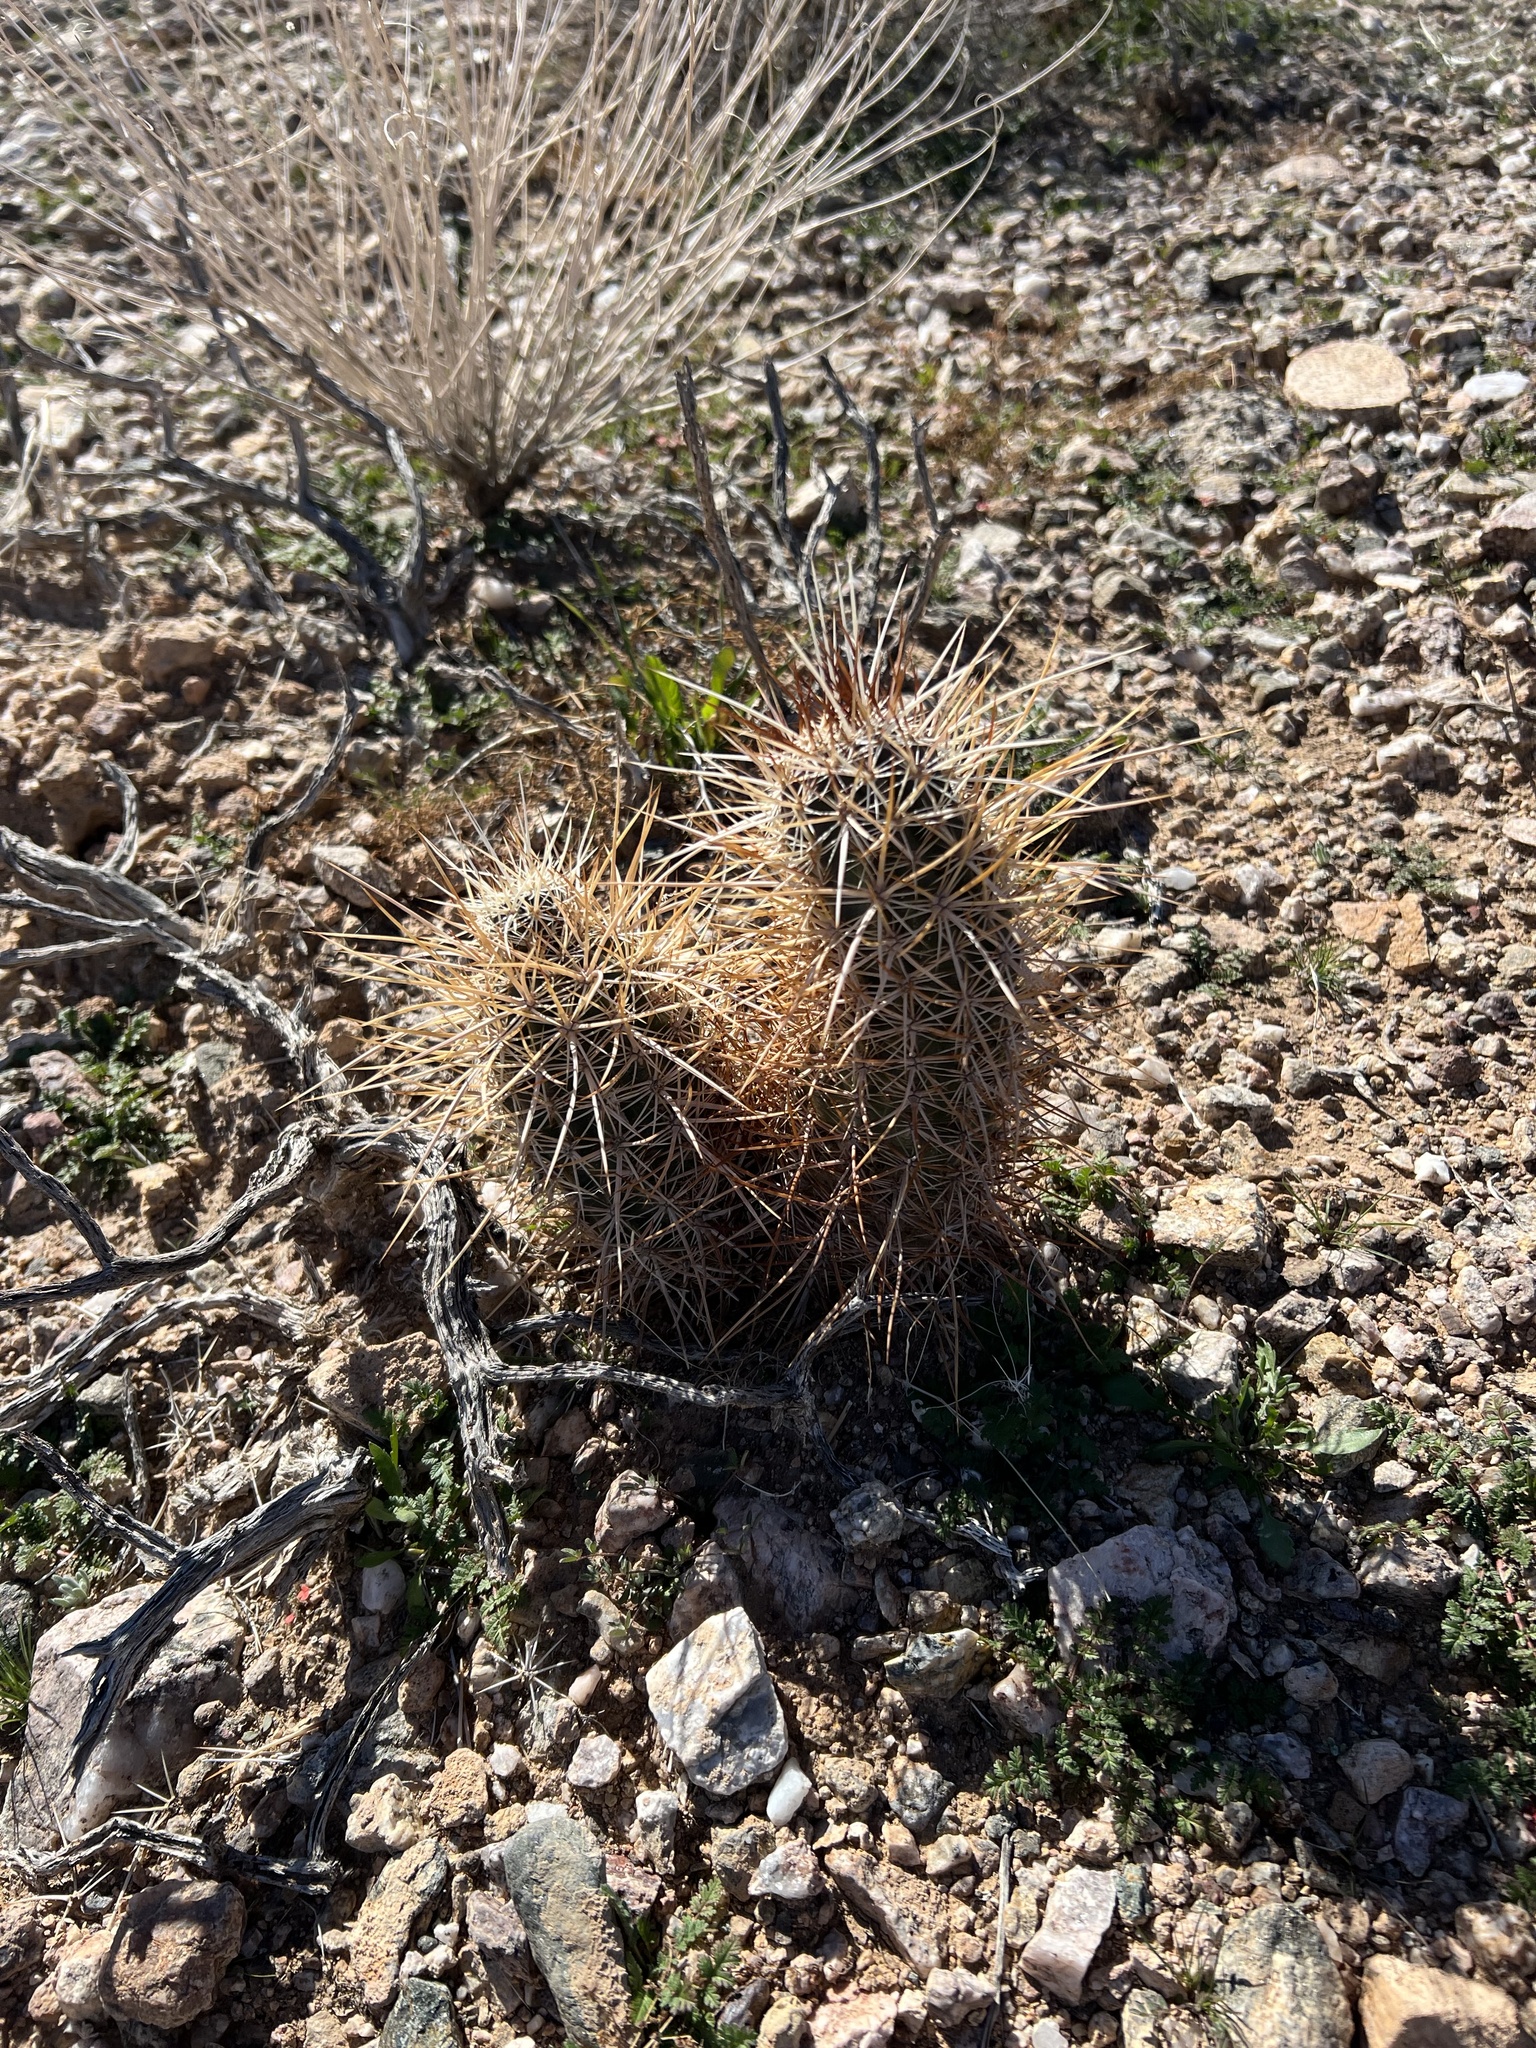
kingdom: Plantae
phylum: Tracheophyta
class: Magnoliopsida
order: Caryophyllales
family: Cactaceae
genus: Echinocereus
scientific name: Echinocereus engelmannii
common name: Engelmann's hedgehog cactus
